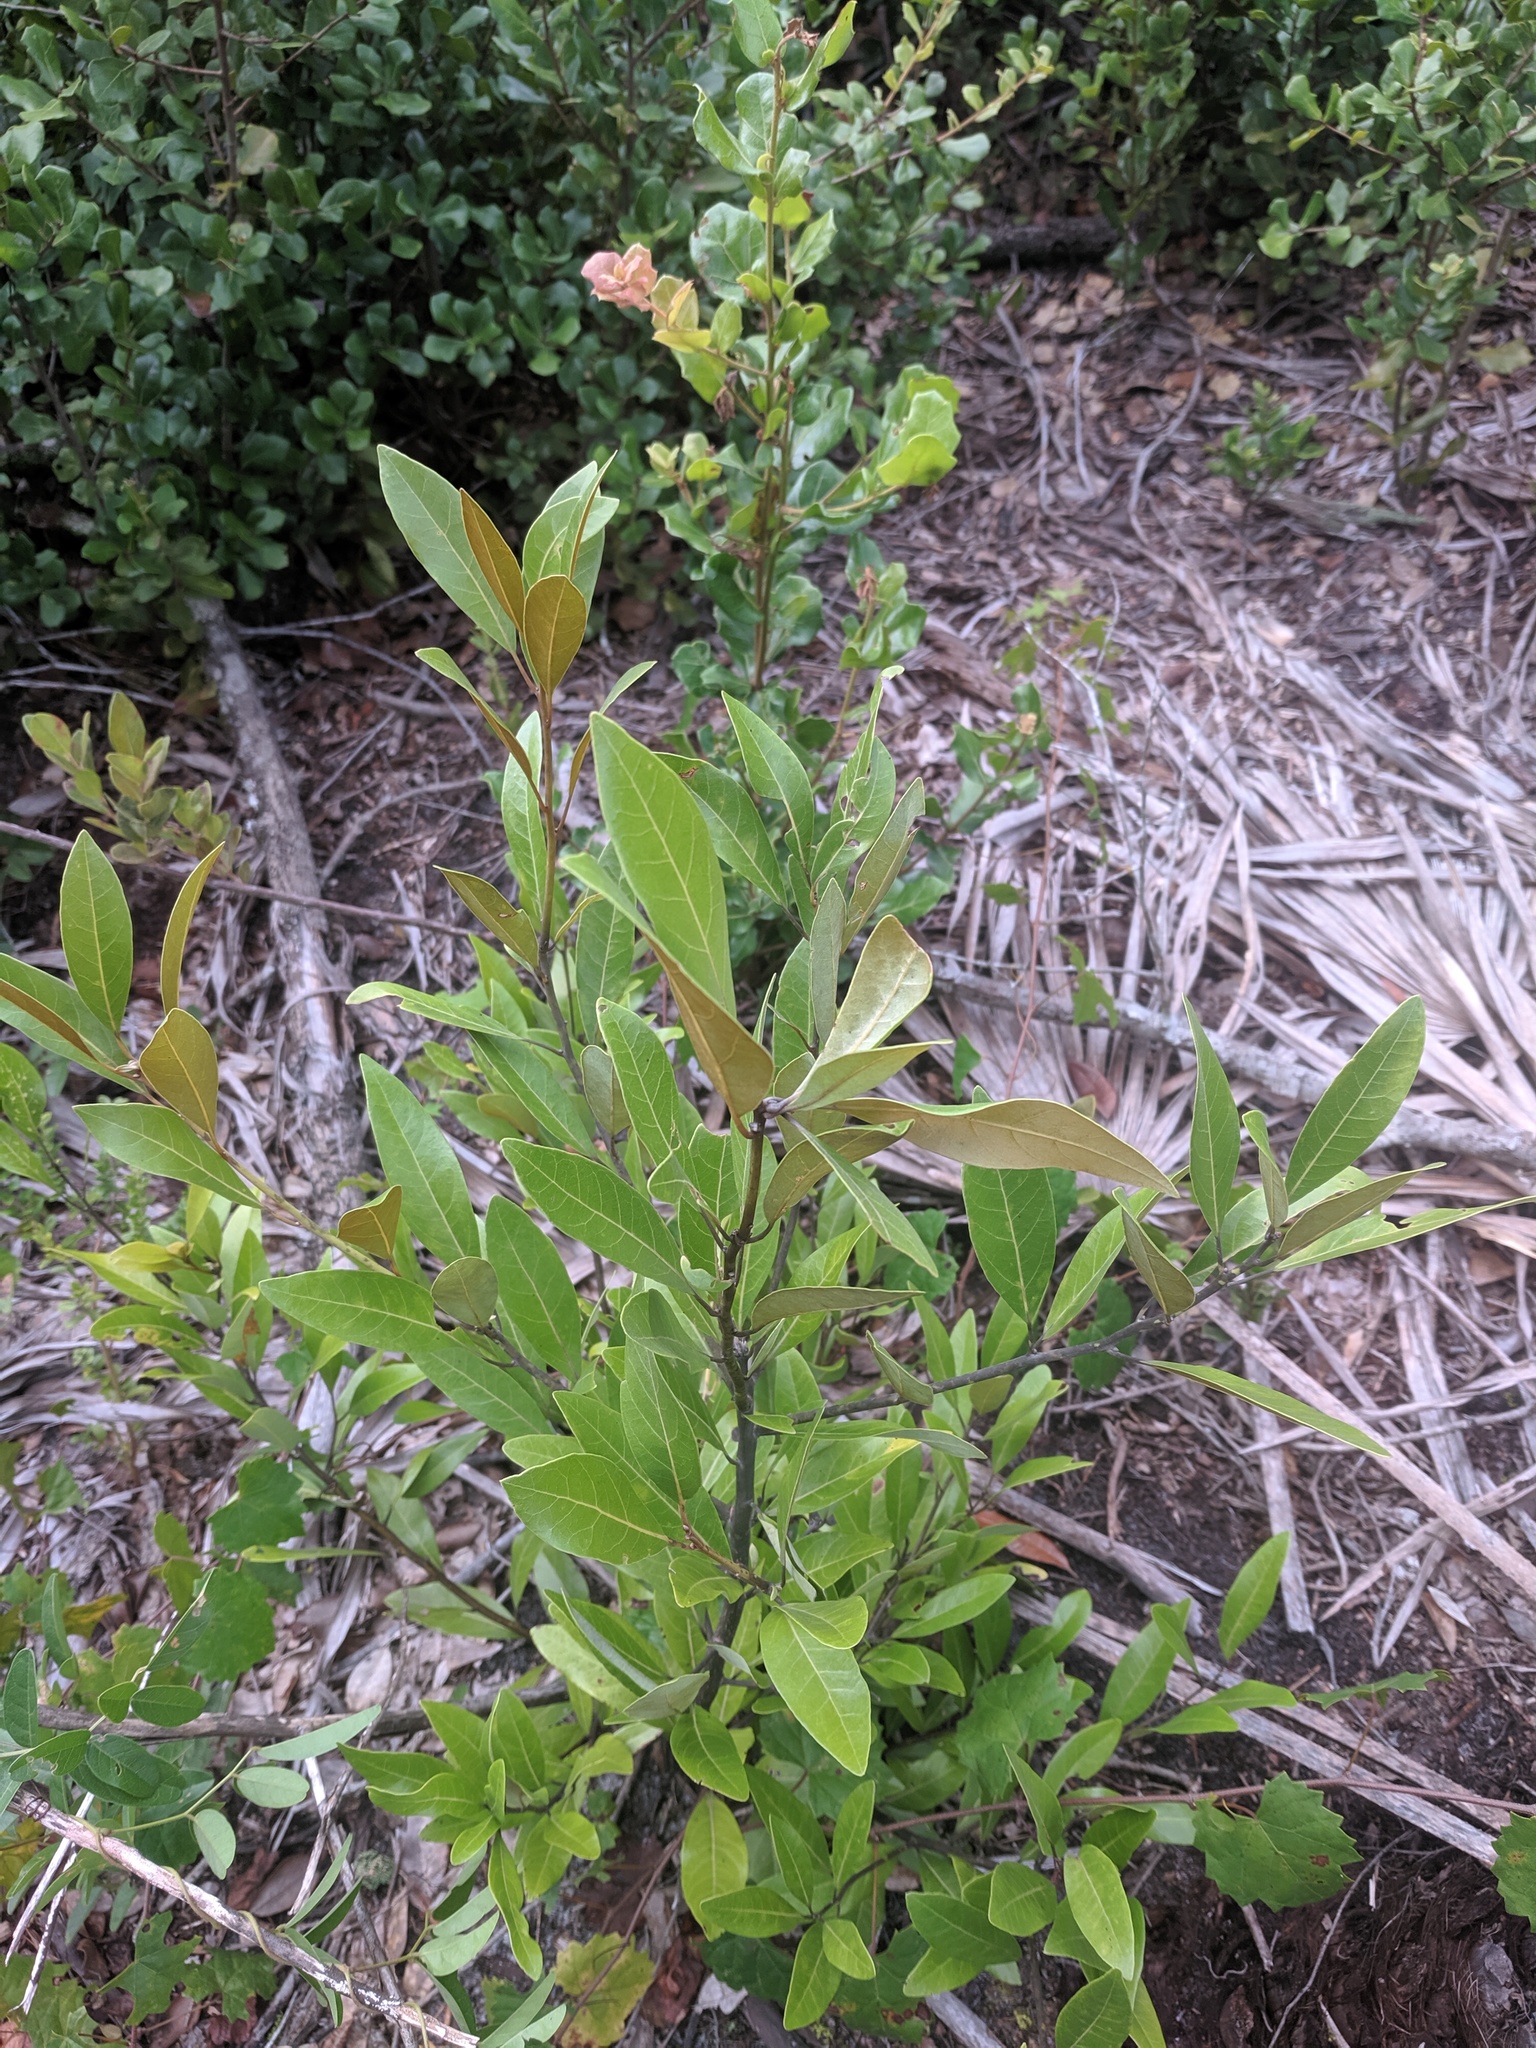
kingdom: Plantae
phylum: Tracheophyta
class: Magnoliopsida
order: Laurales
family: Lauraceae
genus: Persea
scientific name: Persea humilis
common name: Silkbay
